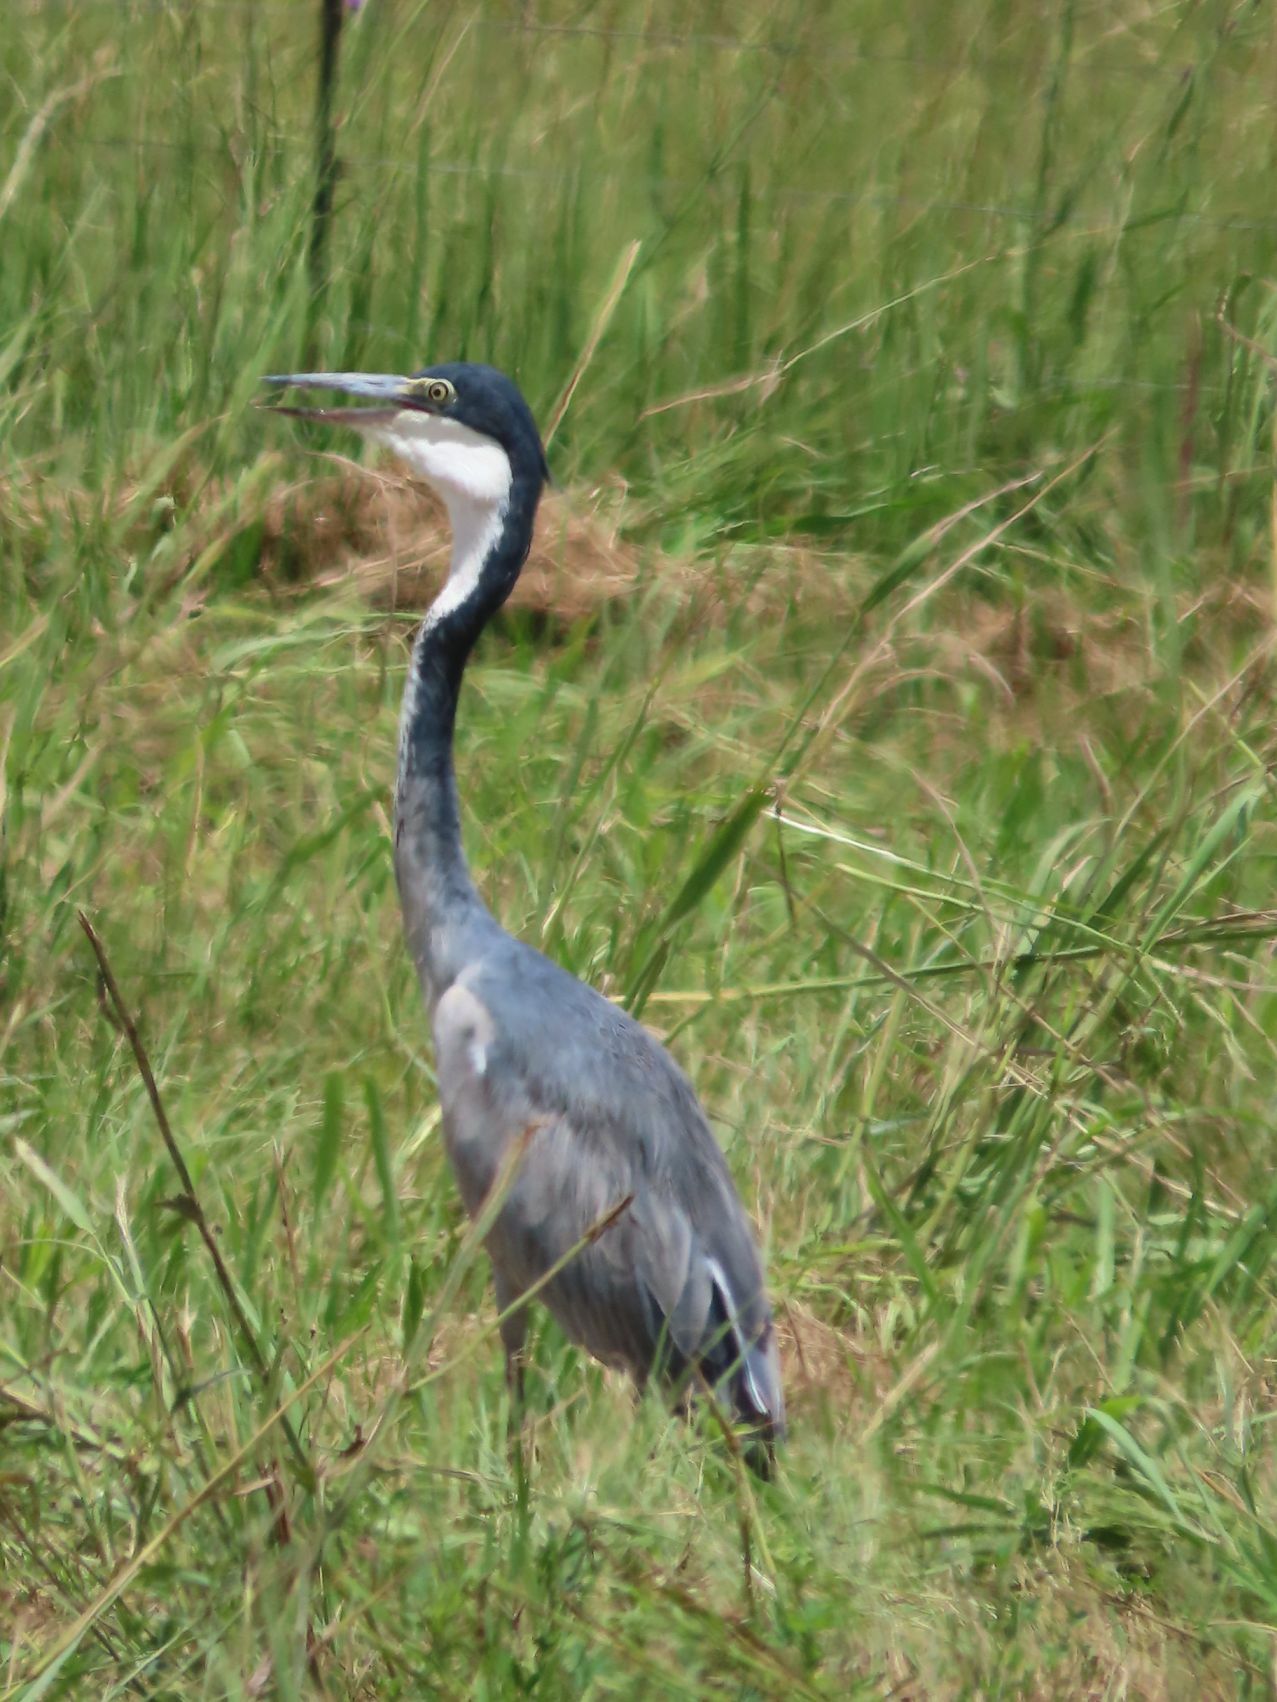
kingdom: Animalia
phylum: Chordata
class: Aves
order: Pelecaniformes
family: Ardeidae
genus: Ardea
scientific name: Ardea melanocephala
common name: Black-headed heron
